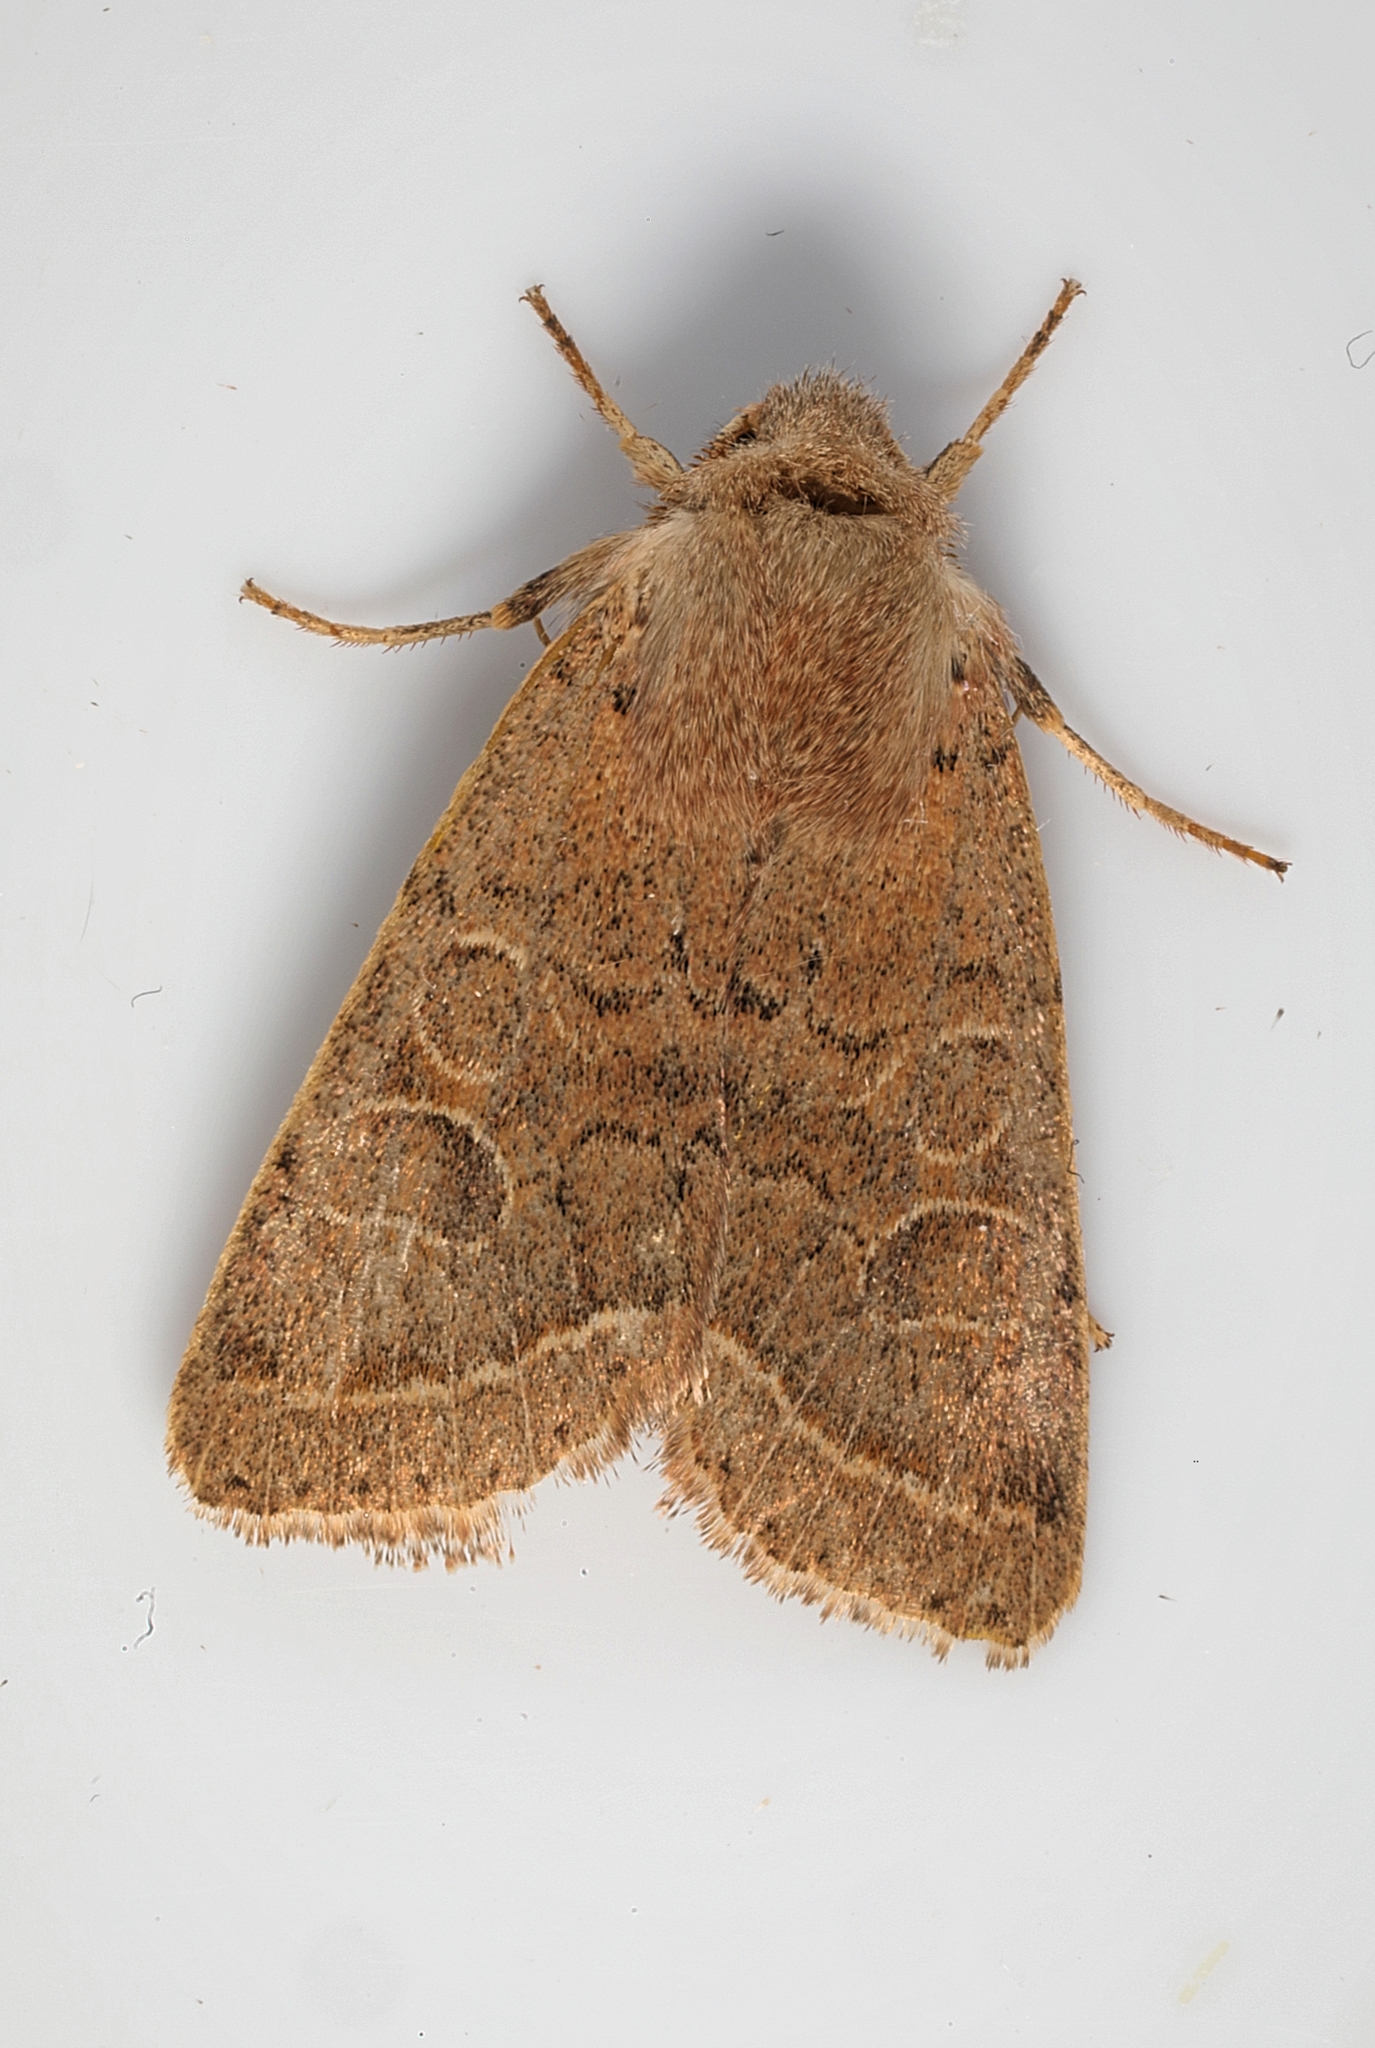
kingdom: Animalia
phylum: Arthropoda
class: Insecta
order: Lepidoptera
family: Noctuidae
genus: Orthosia
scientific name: Orthosia cerasi
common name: Common quaker
